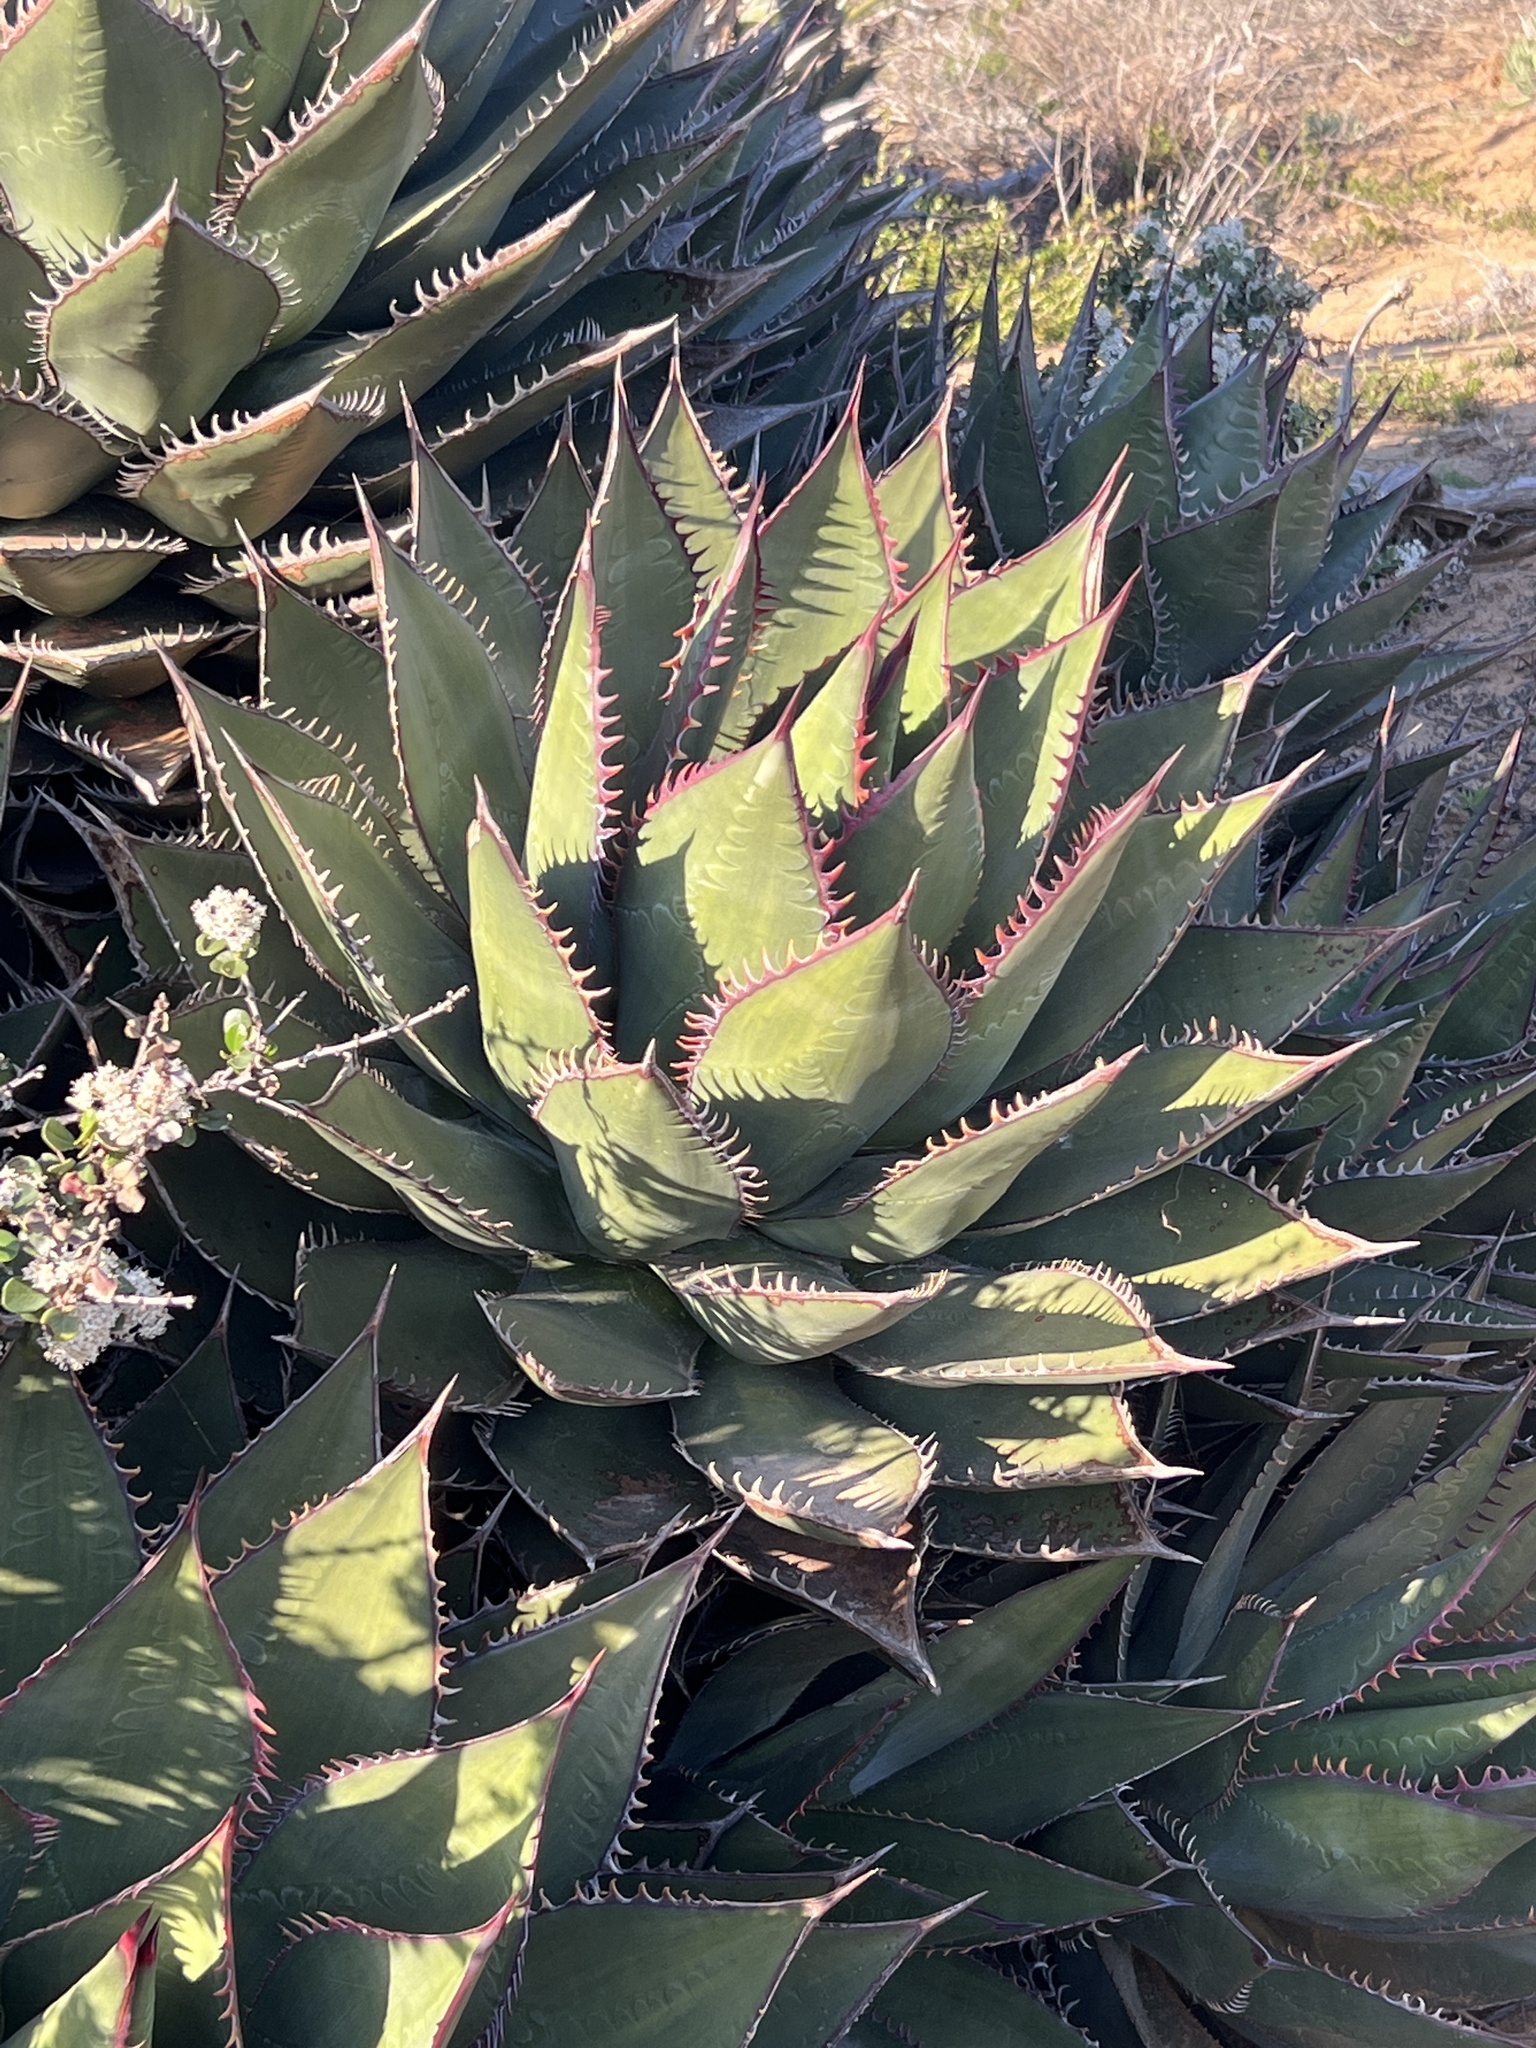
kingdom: Plantae
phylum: Tracheophyta
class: Liliopsida
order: Asparagales
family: Asparagaceae
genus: Agave
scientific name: Agave shawii
